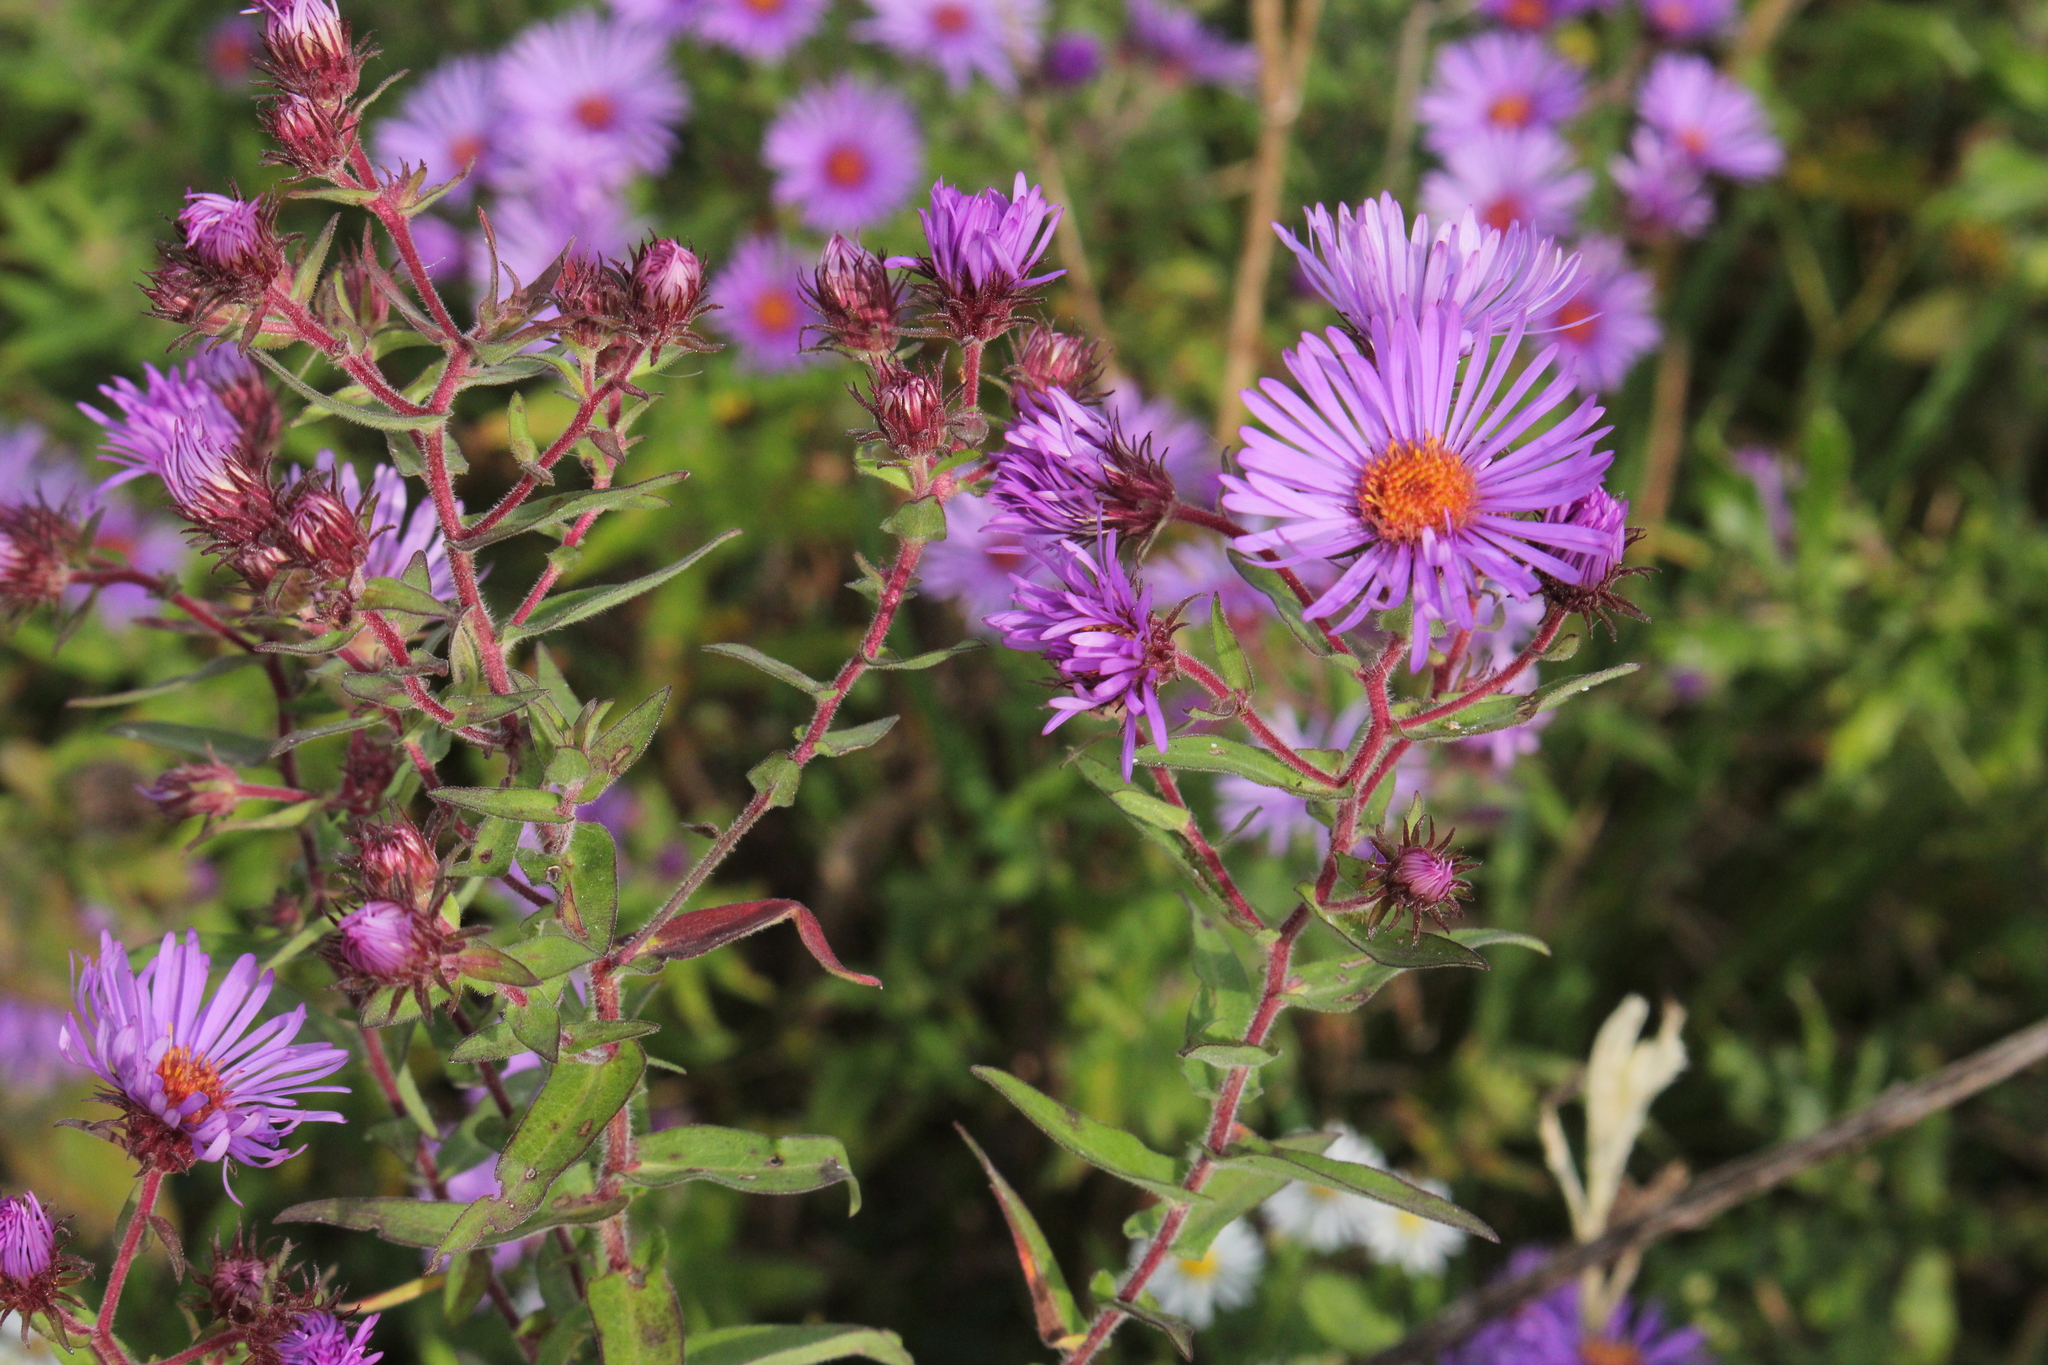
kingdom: Plantae
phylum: Tracheophyta
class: Magnoliopsida
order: Asterales
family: Asteraceae
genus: Symphyotrichum
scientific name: Symphyotrichum novae-angliae
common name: Michaelmas daisy
